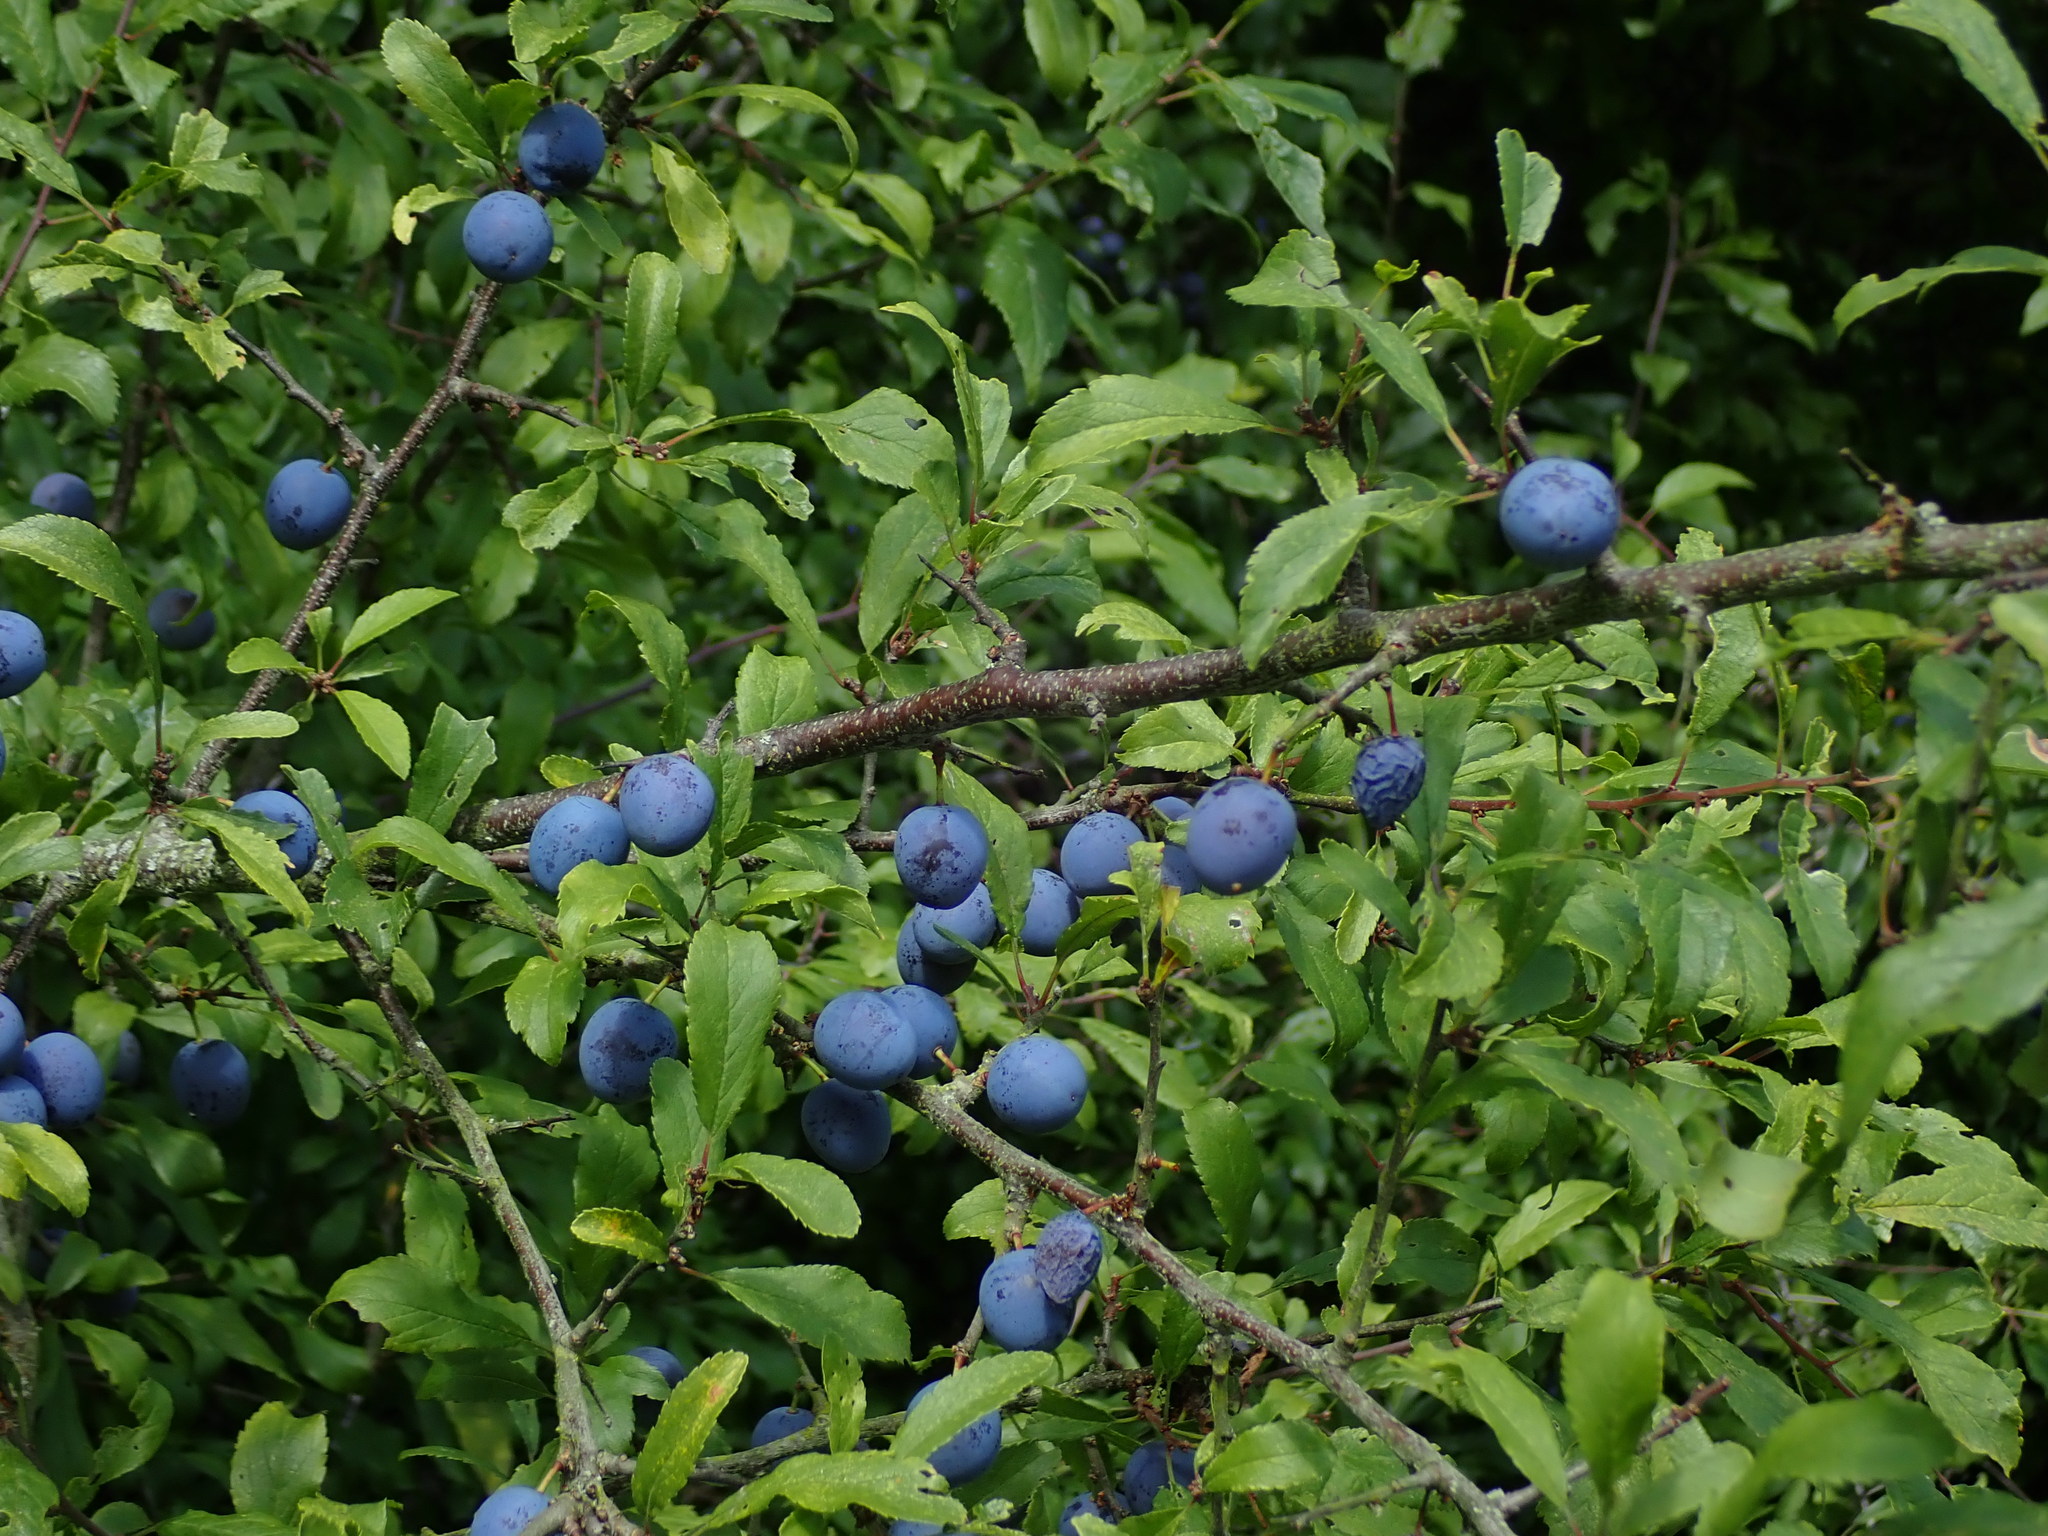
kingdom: Plantae
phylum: Tracheophyta
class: Magnoliopsida
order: Rosales
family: Rosaceae
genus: Prunus
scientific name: Prunus spinosa
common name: Blackthorn
